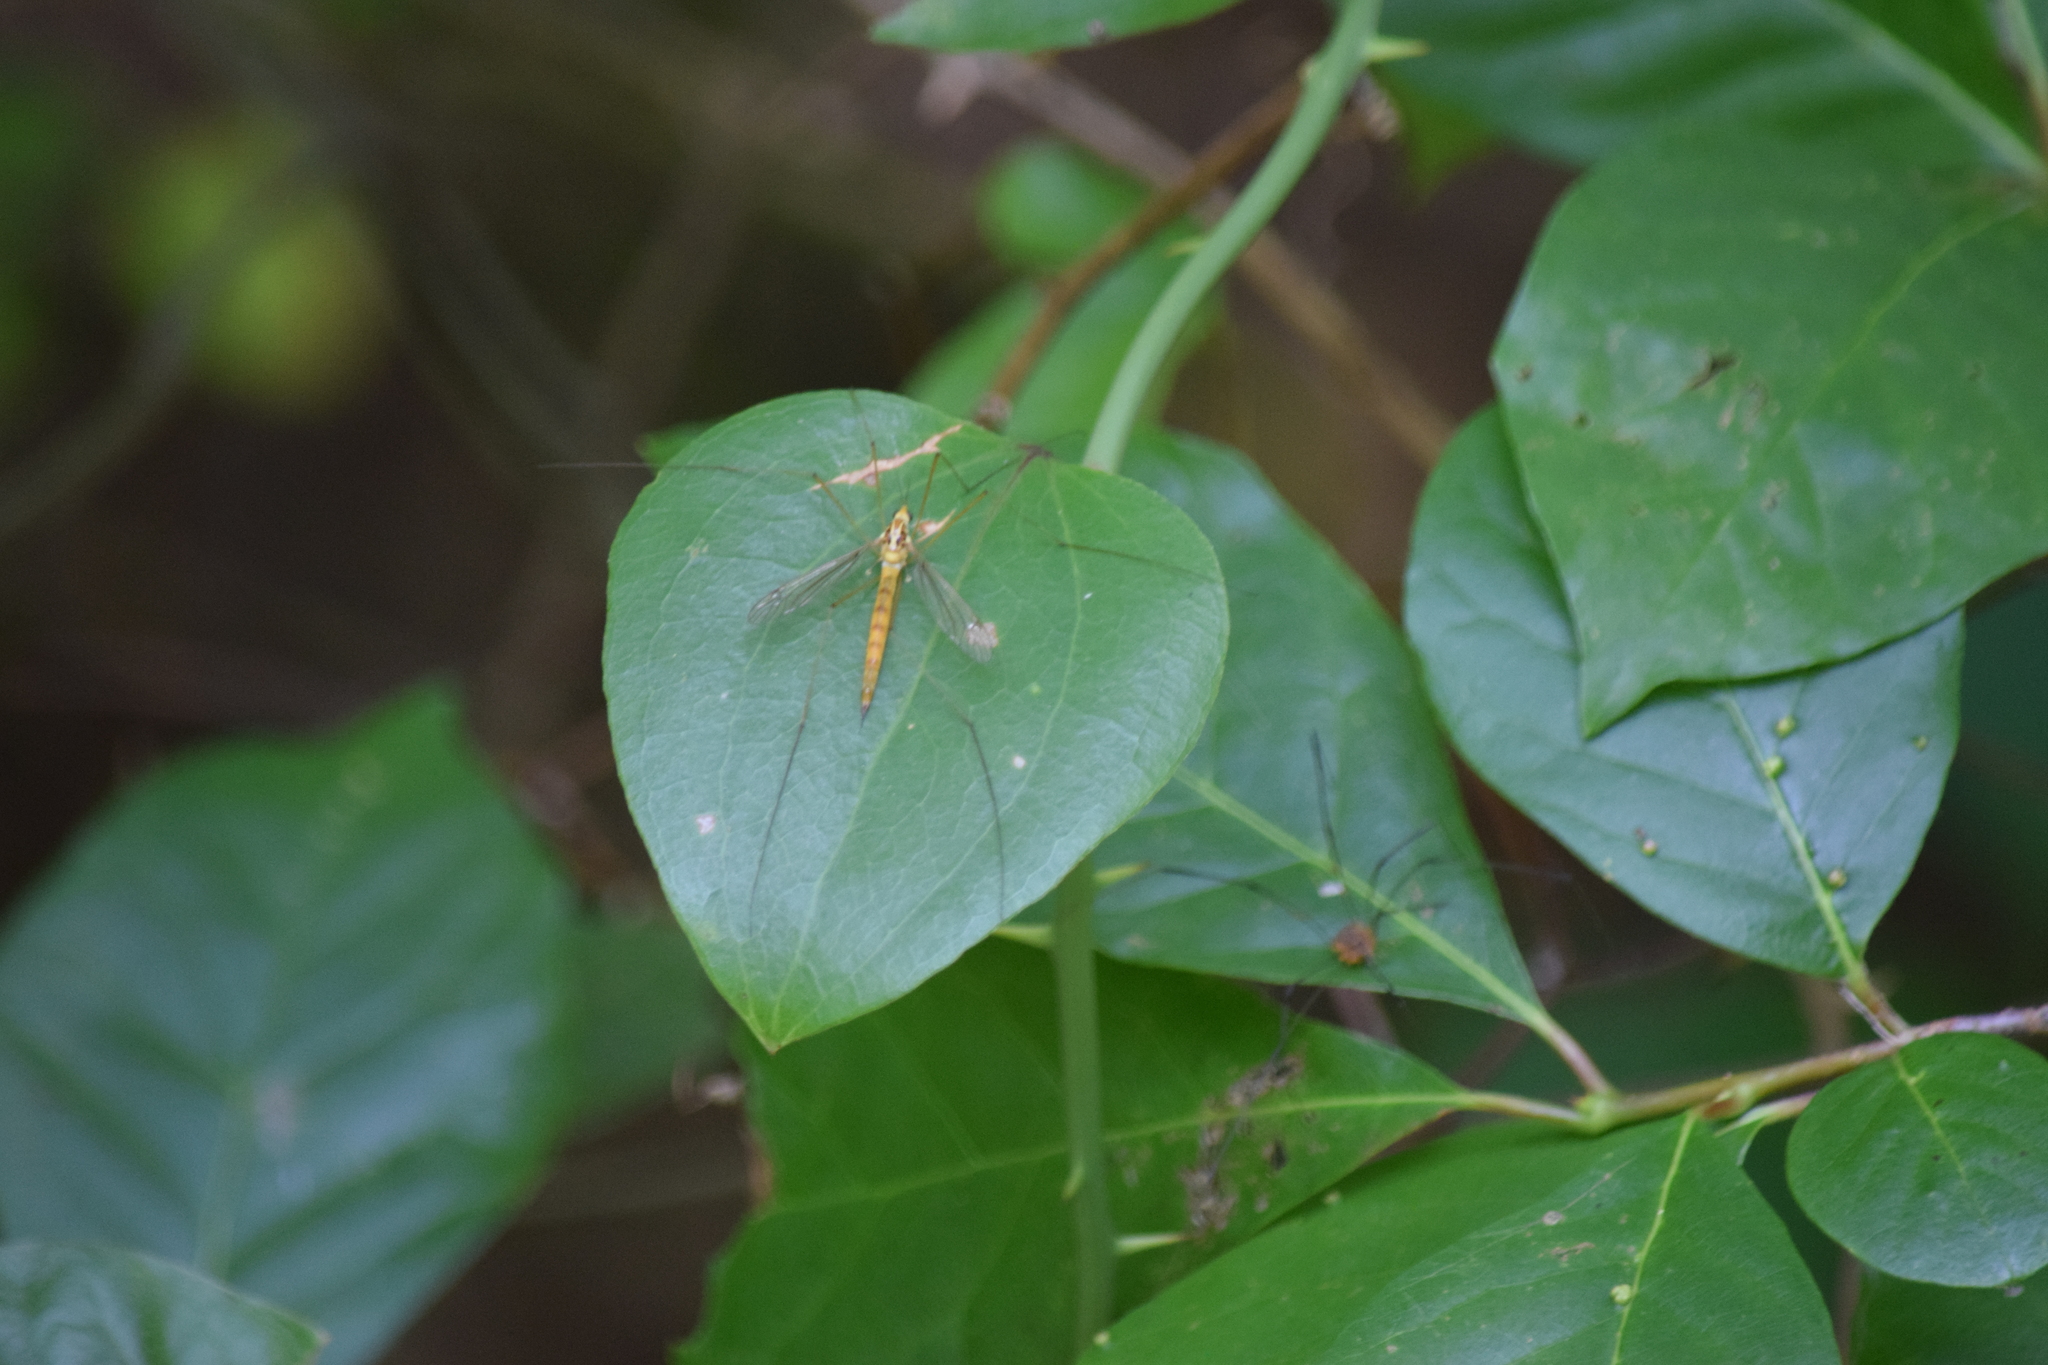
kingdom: Animalia
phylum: Arthropoda
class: Insecta
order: Diptera
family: Tipulidae
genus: Nephrotoma
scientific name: Nephrotoma ferruginea
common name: Ferruginous tiger crane fly
